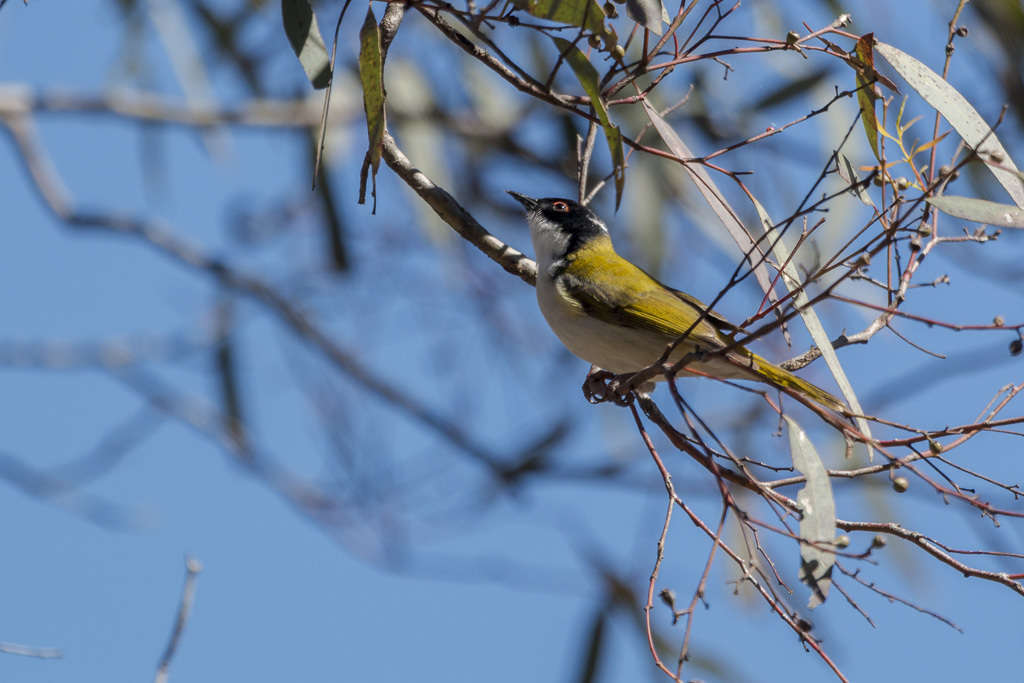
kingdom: Animalia
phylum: Chordata
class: Aves
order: Passeriformes
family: Meliphagidae
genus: Melithreptus
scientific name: Melithreptus lunatus
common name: White-naped honeyeater
